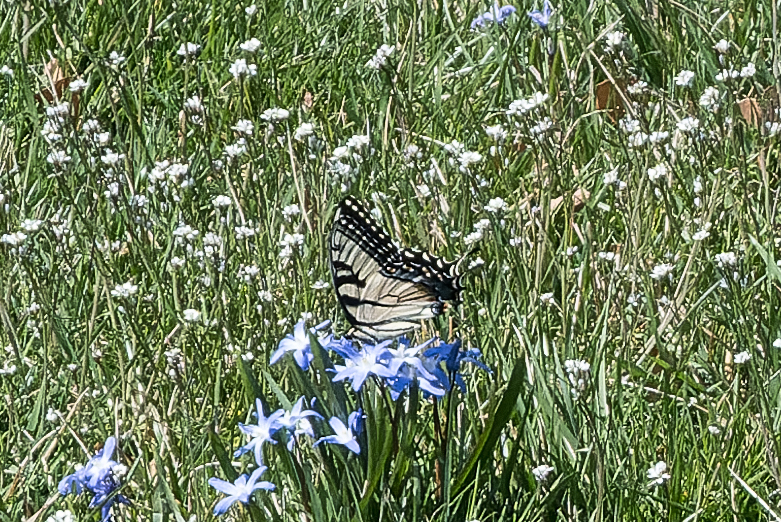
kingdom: Animalia
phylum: Arthropoda
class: Insecta
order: Lepidoptera
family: Papilionidae
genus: Papilio
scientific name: Papilio glaucus
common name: Tiger swallowtail
